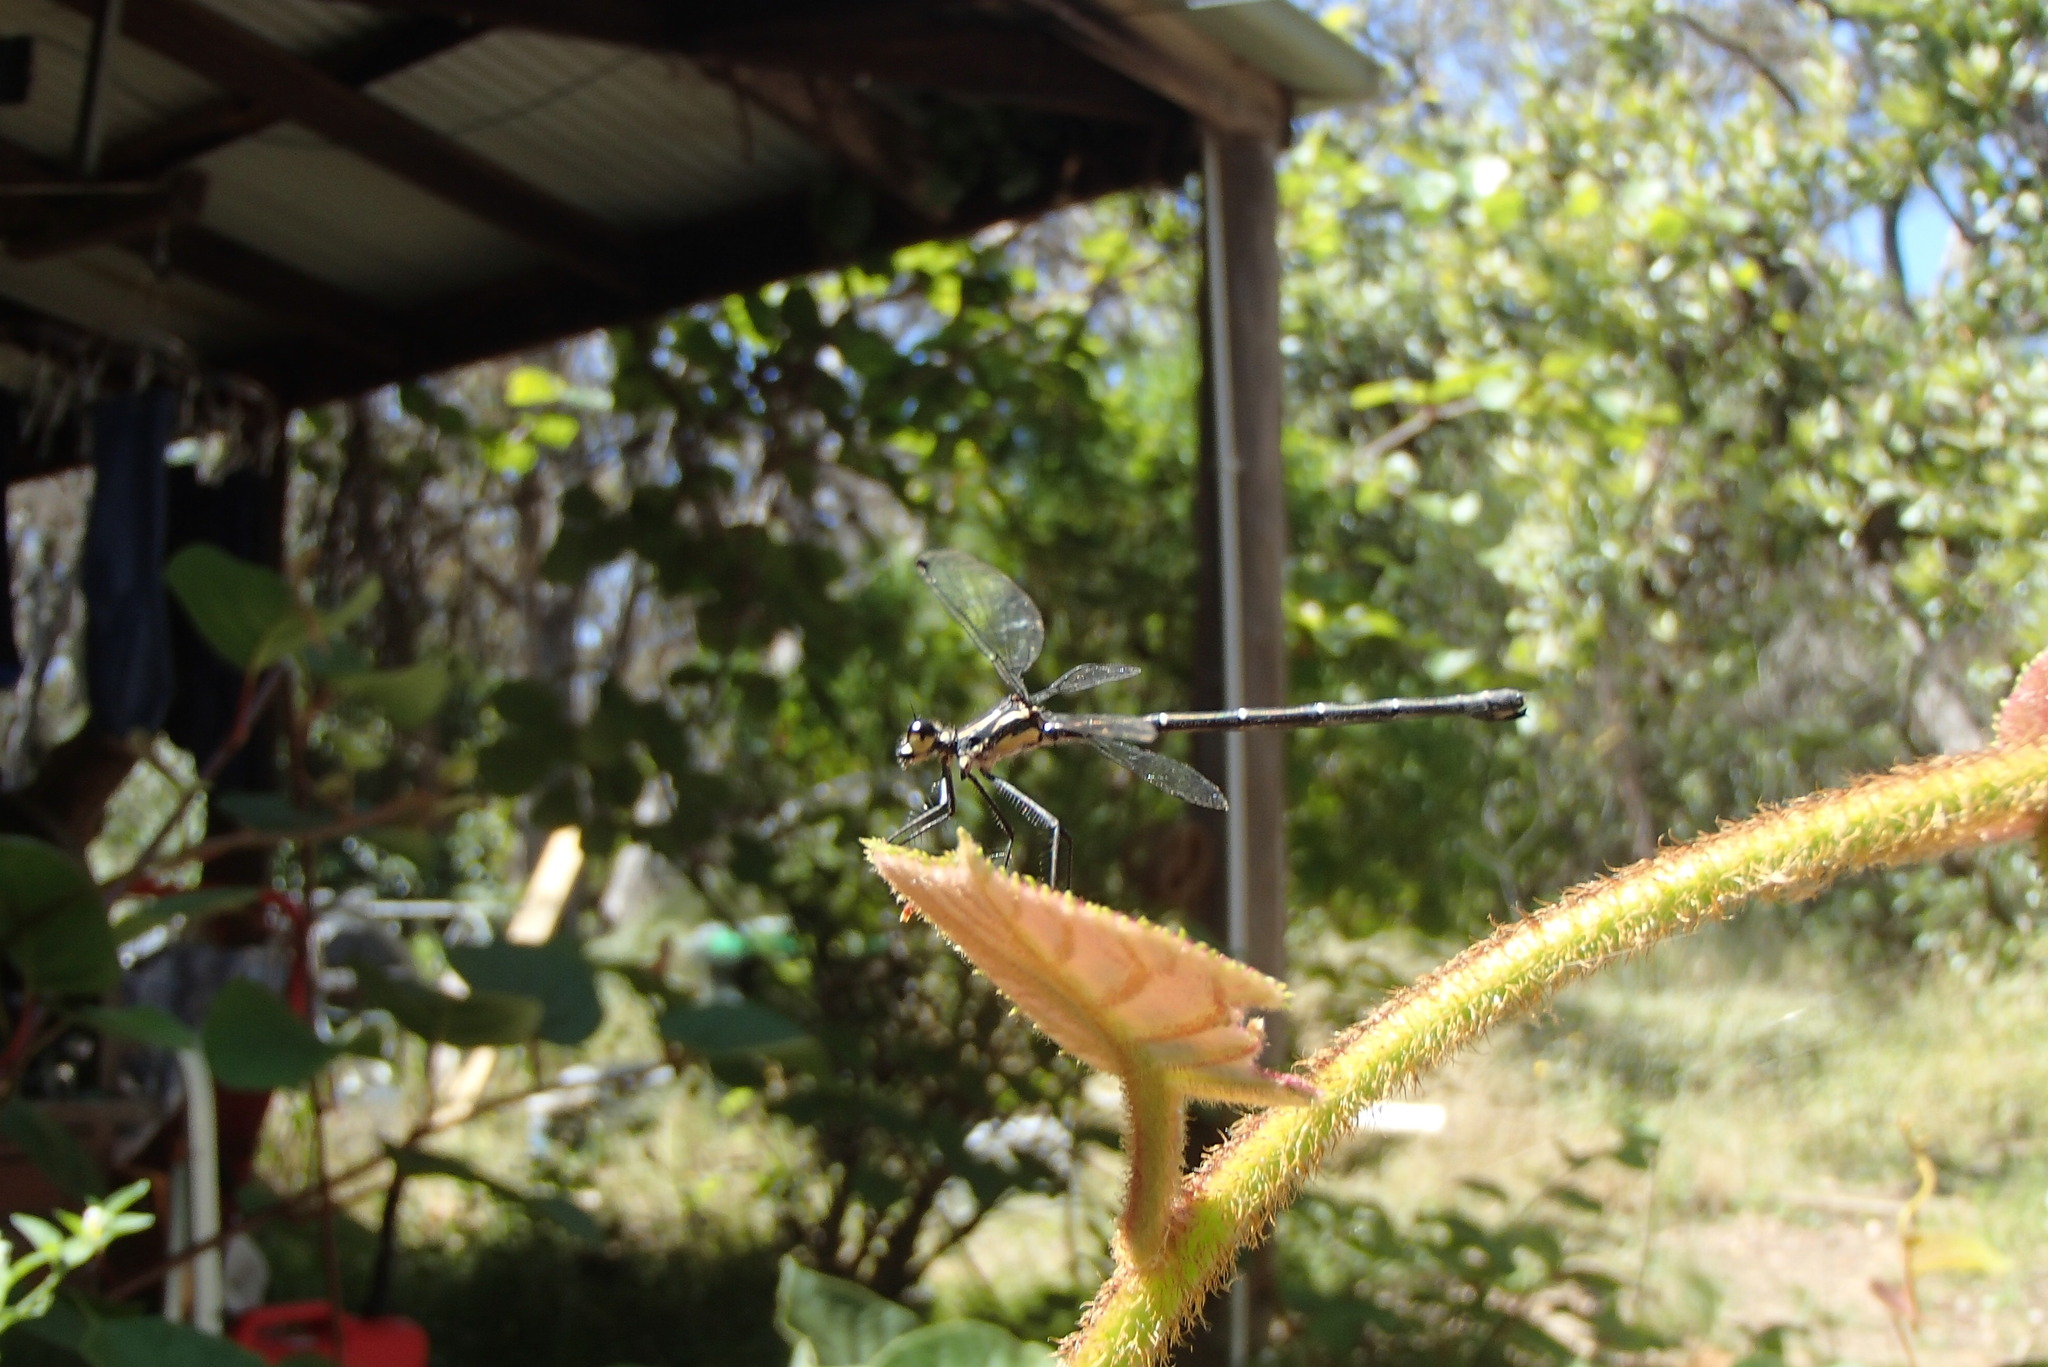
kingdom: Animalia
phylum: Arthropoda
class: Insecta
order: Odonata
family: Argiolestidae
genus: Austroargiolestes
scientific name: Austroargiolestes isabellae
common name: Sydney flatwing
